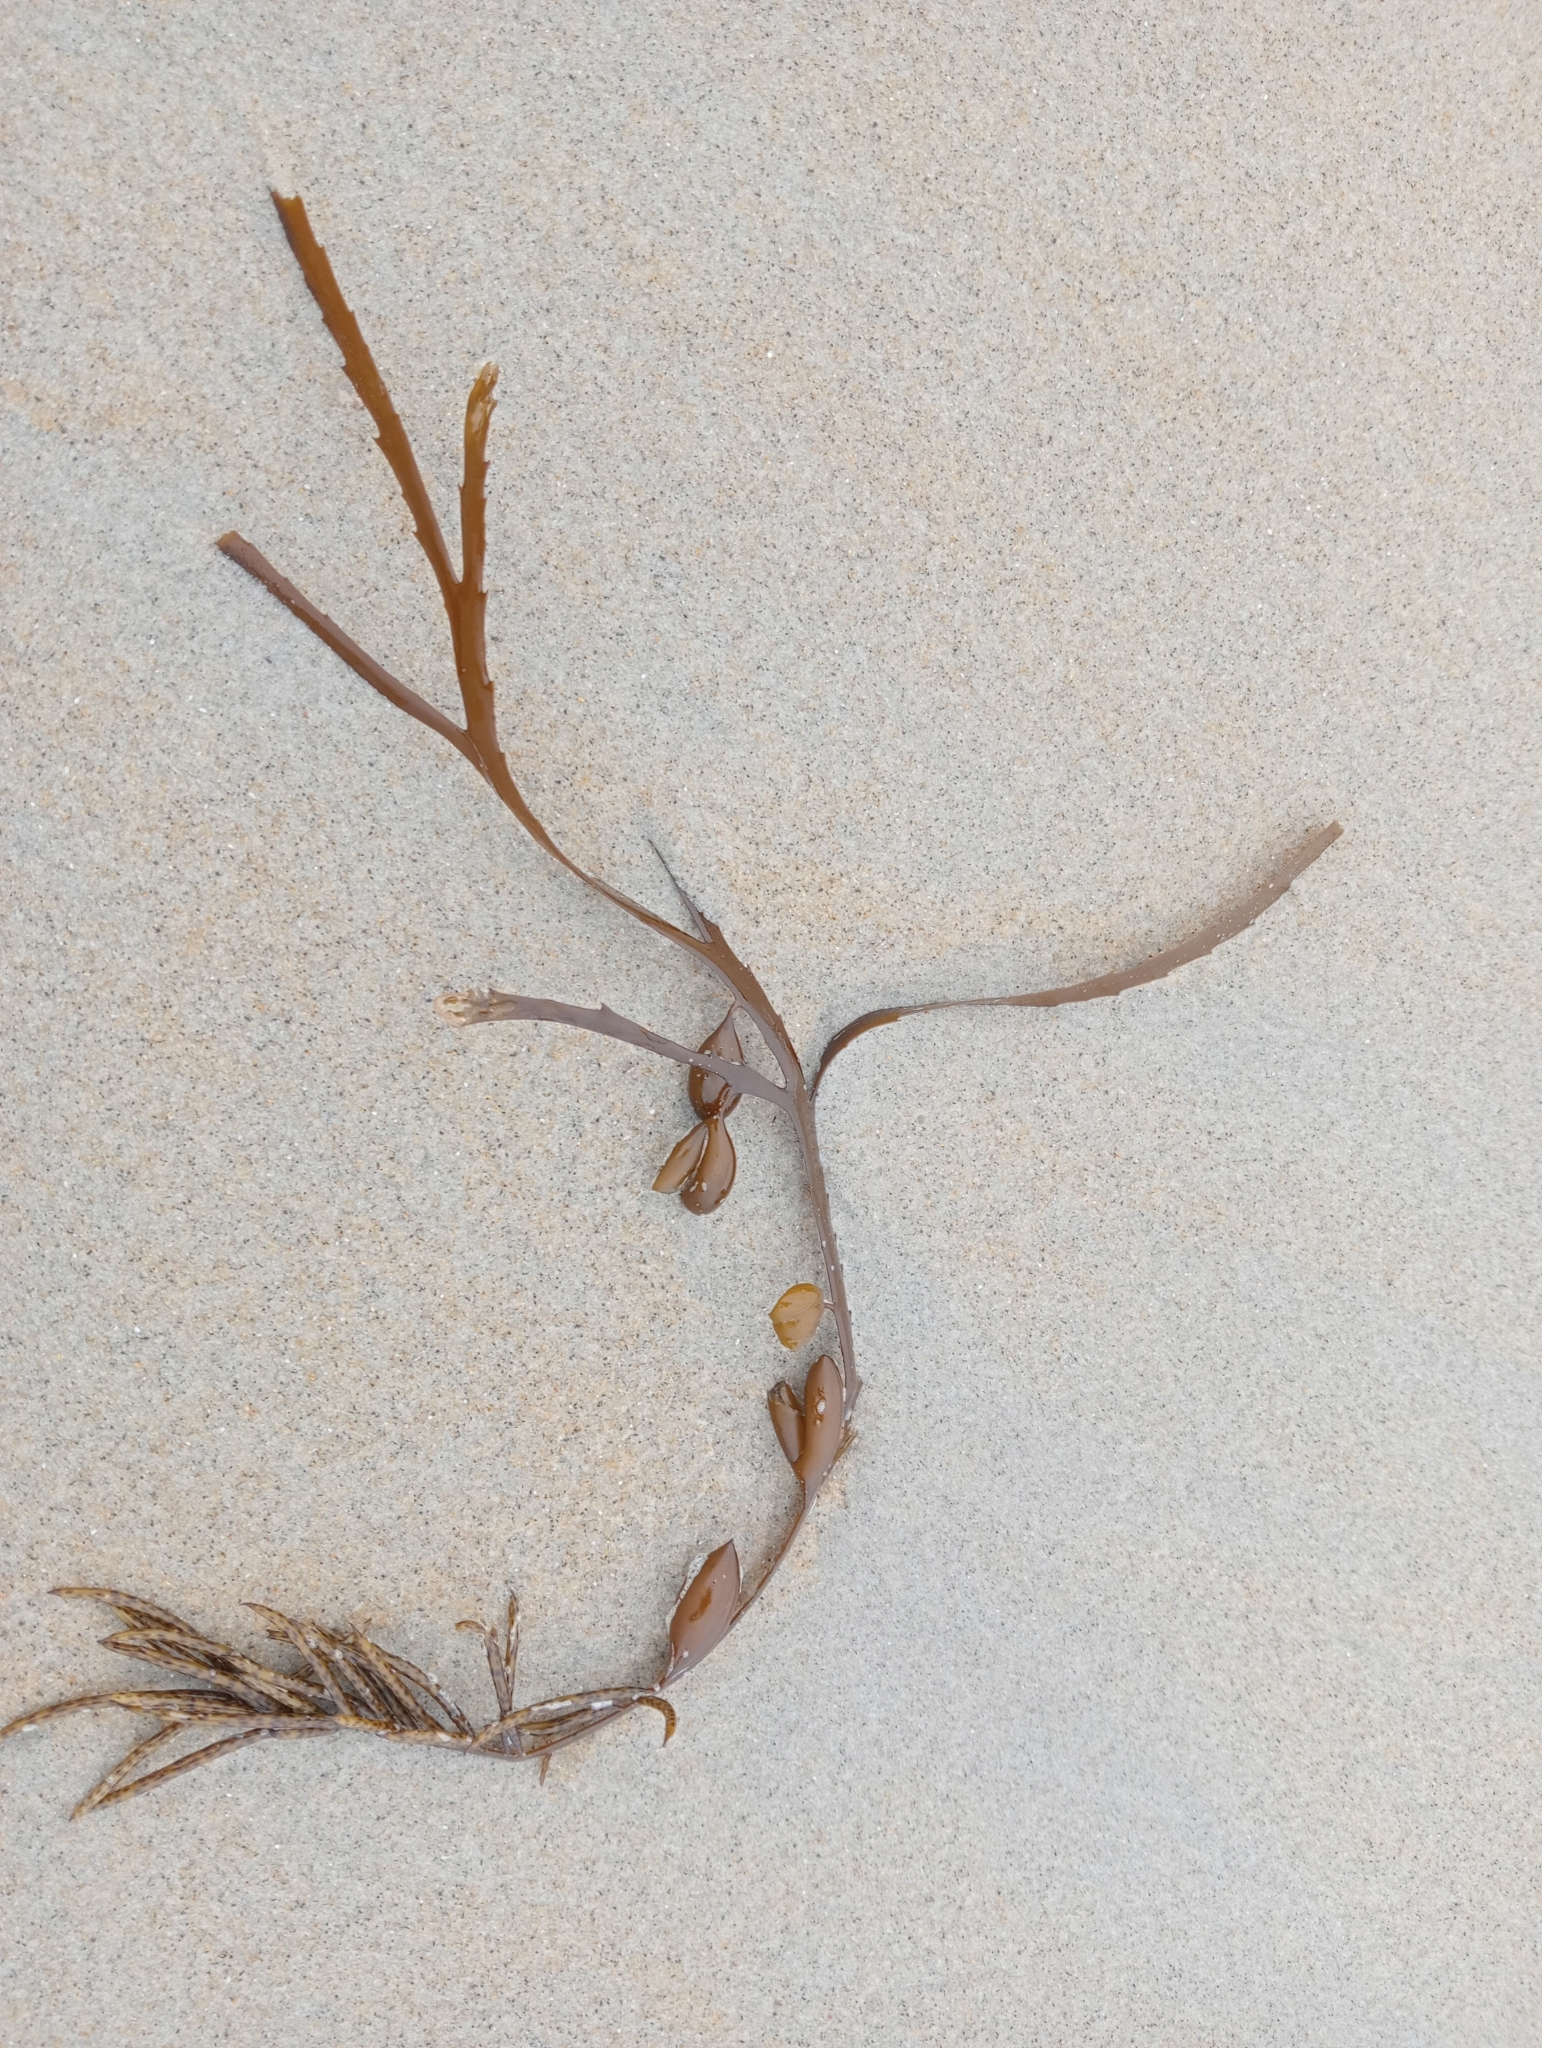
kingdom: Chromista
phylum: Ochrophyta
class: Phaeophyceae
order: Fucales
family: Seirococcaceae
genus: Marginariella
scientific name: Marginariella boryana
